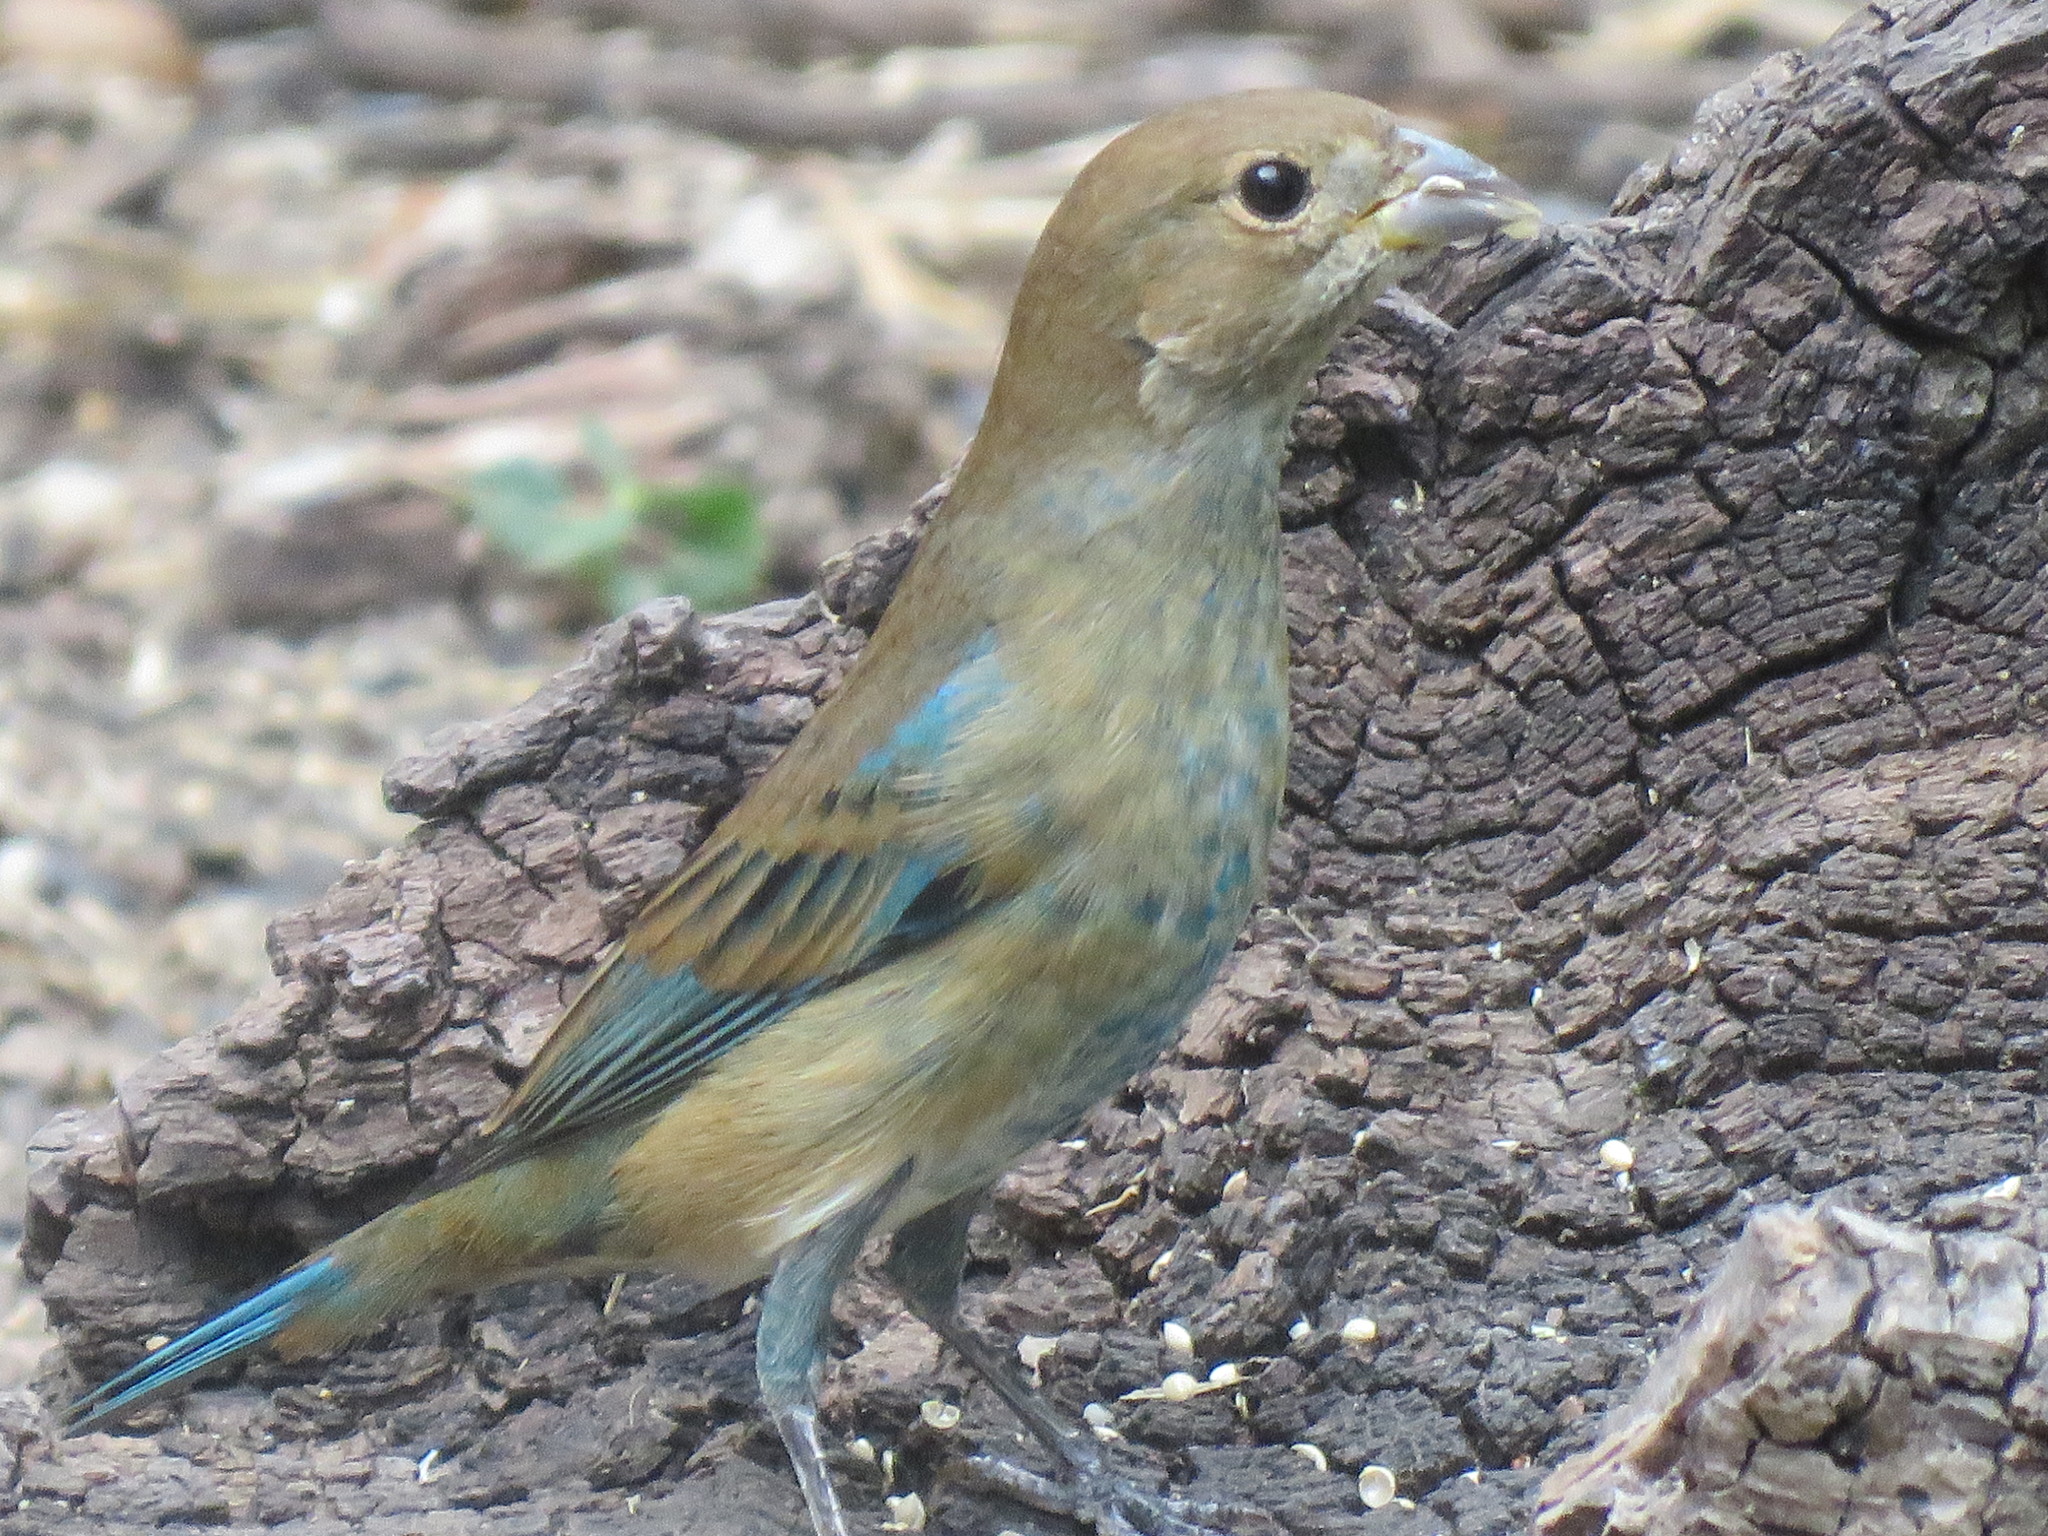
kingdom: Animalia
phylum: Chordata
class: Aves
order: Passeriformes
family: Cardinalidae
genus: Passerina
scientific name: Passerina cyanea
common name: Indigo bunting
